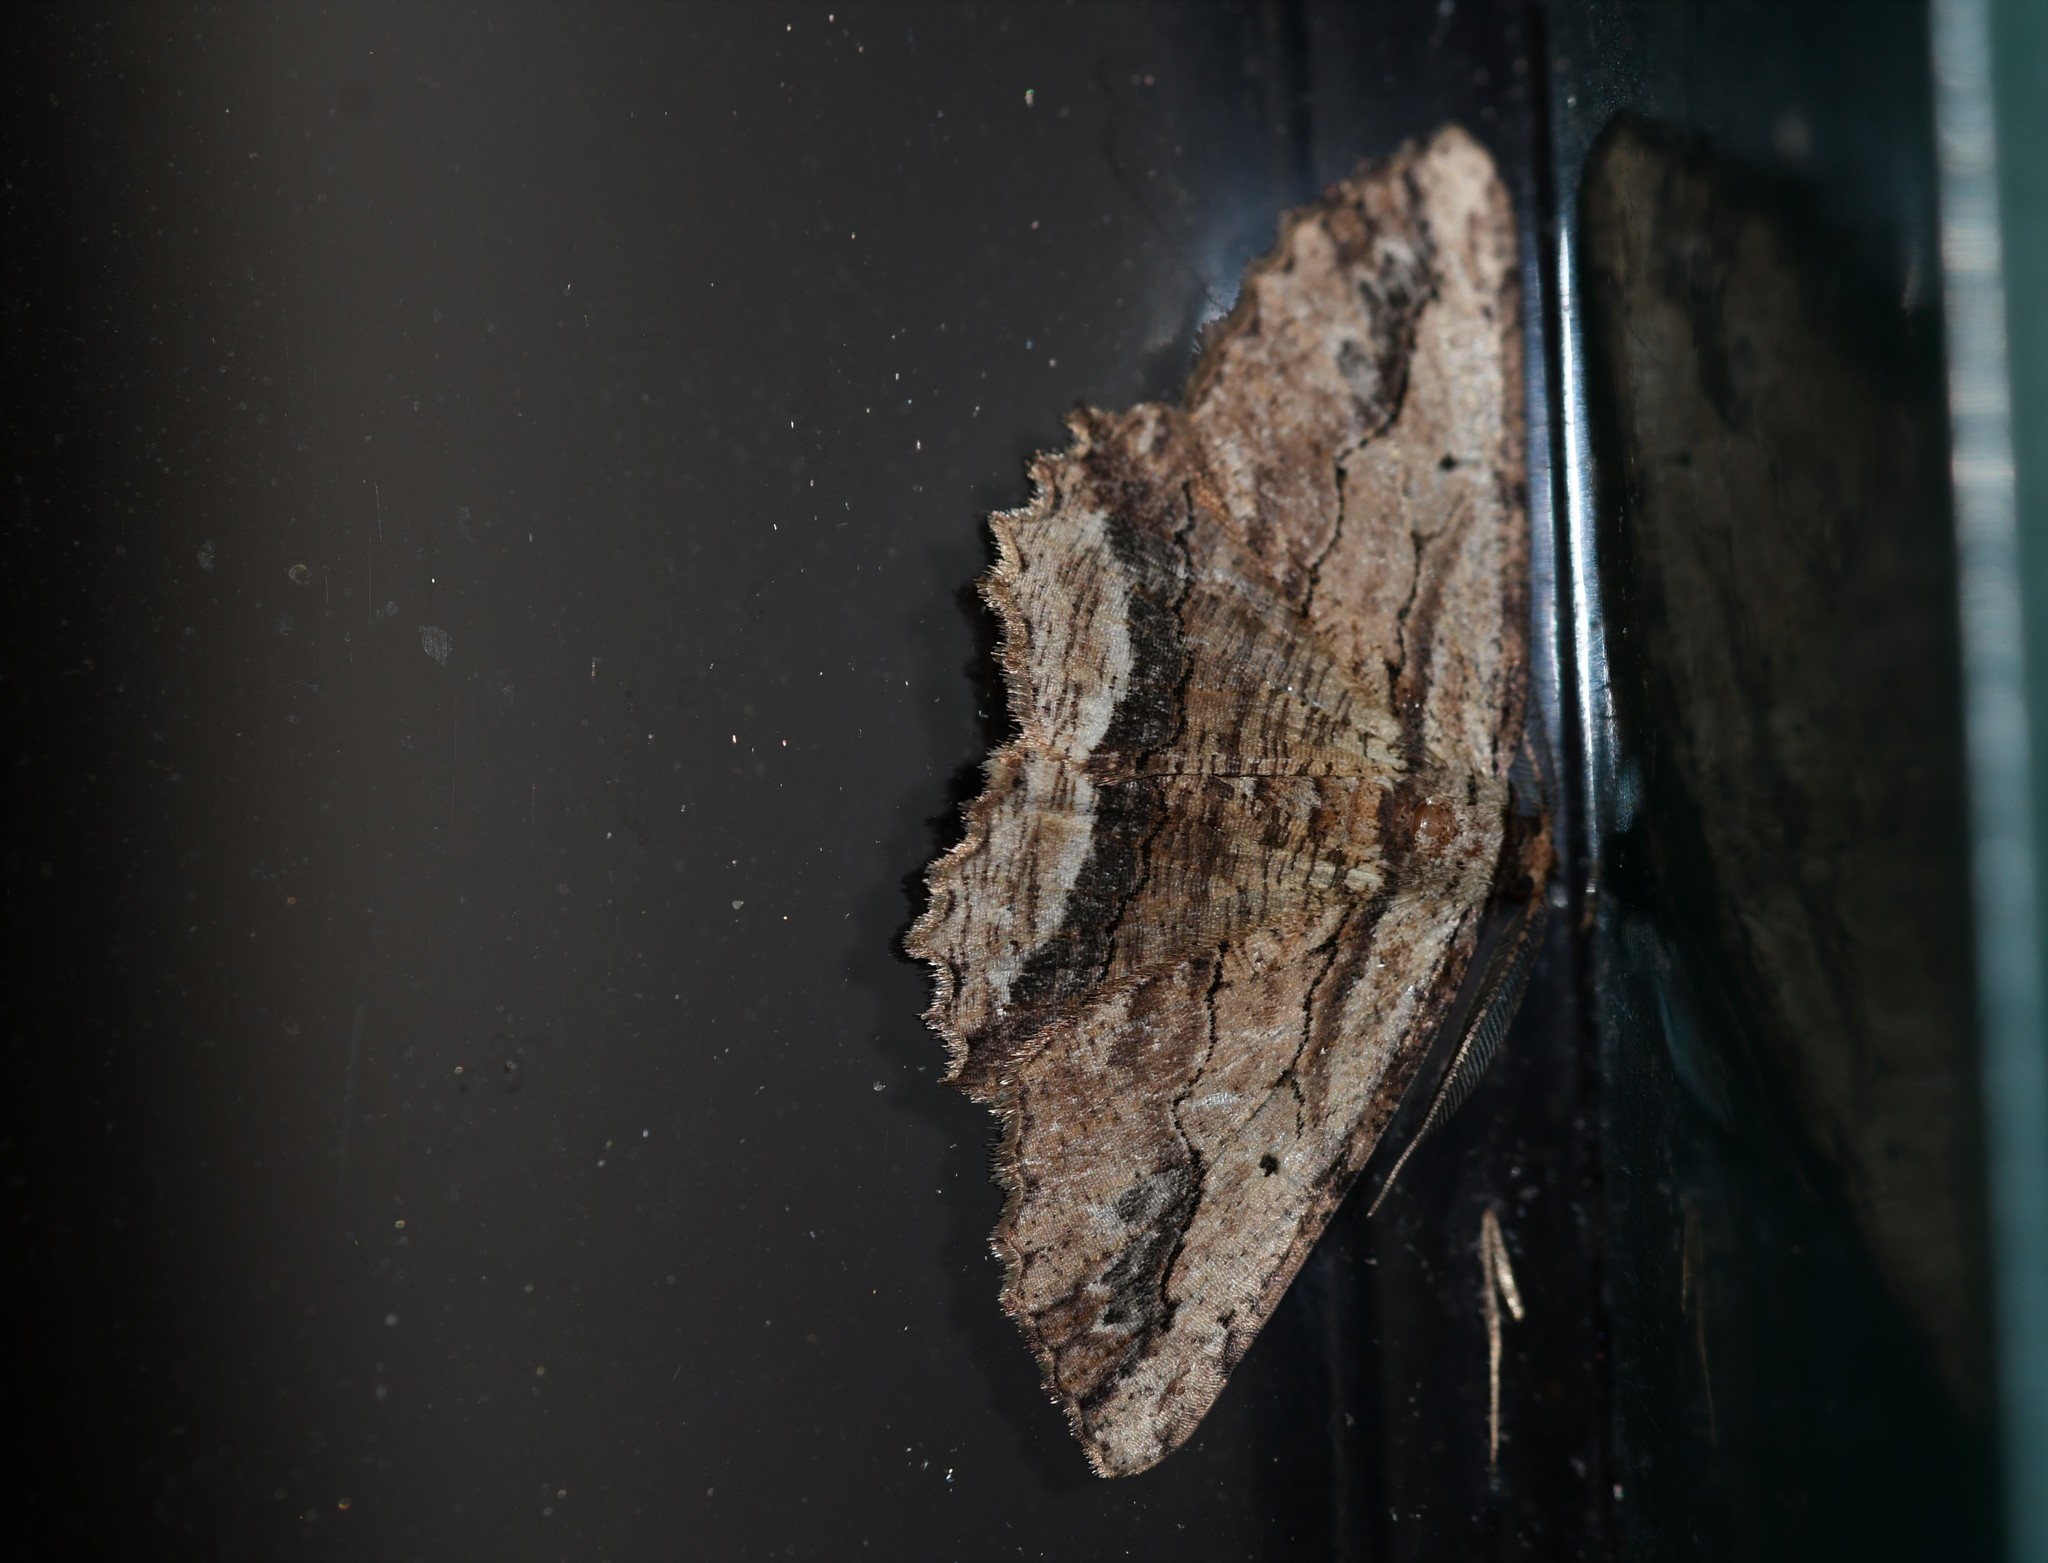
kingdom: Animalia
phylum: Arthropoda
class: Insecta
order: Lepidoptera
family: Geometridae
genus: Menophra
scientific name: Menophra abruptaria
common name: Waved umber
